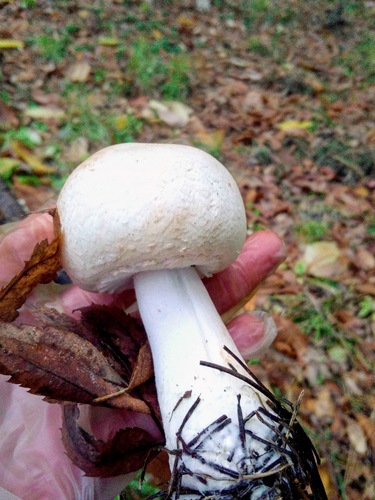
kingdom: Fungi
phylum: Basidiomycota
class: Agaricomycetes
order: Agaricales
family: Agaricaceae
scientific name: Agaricaceae
